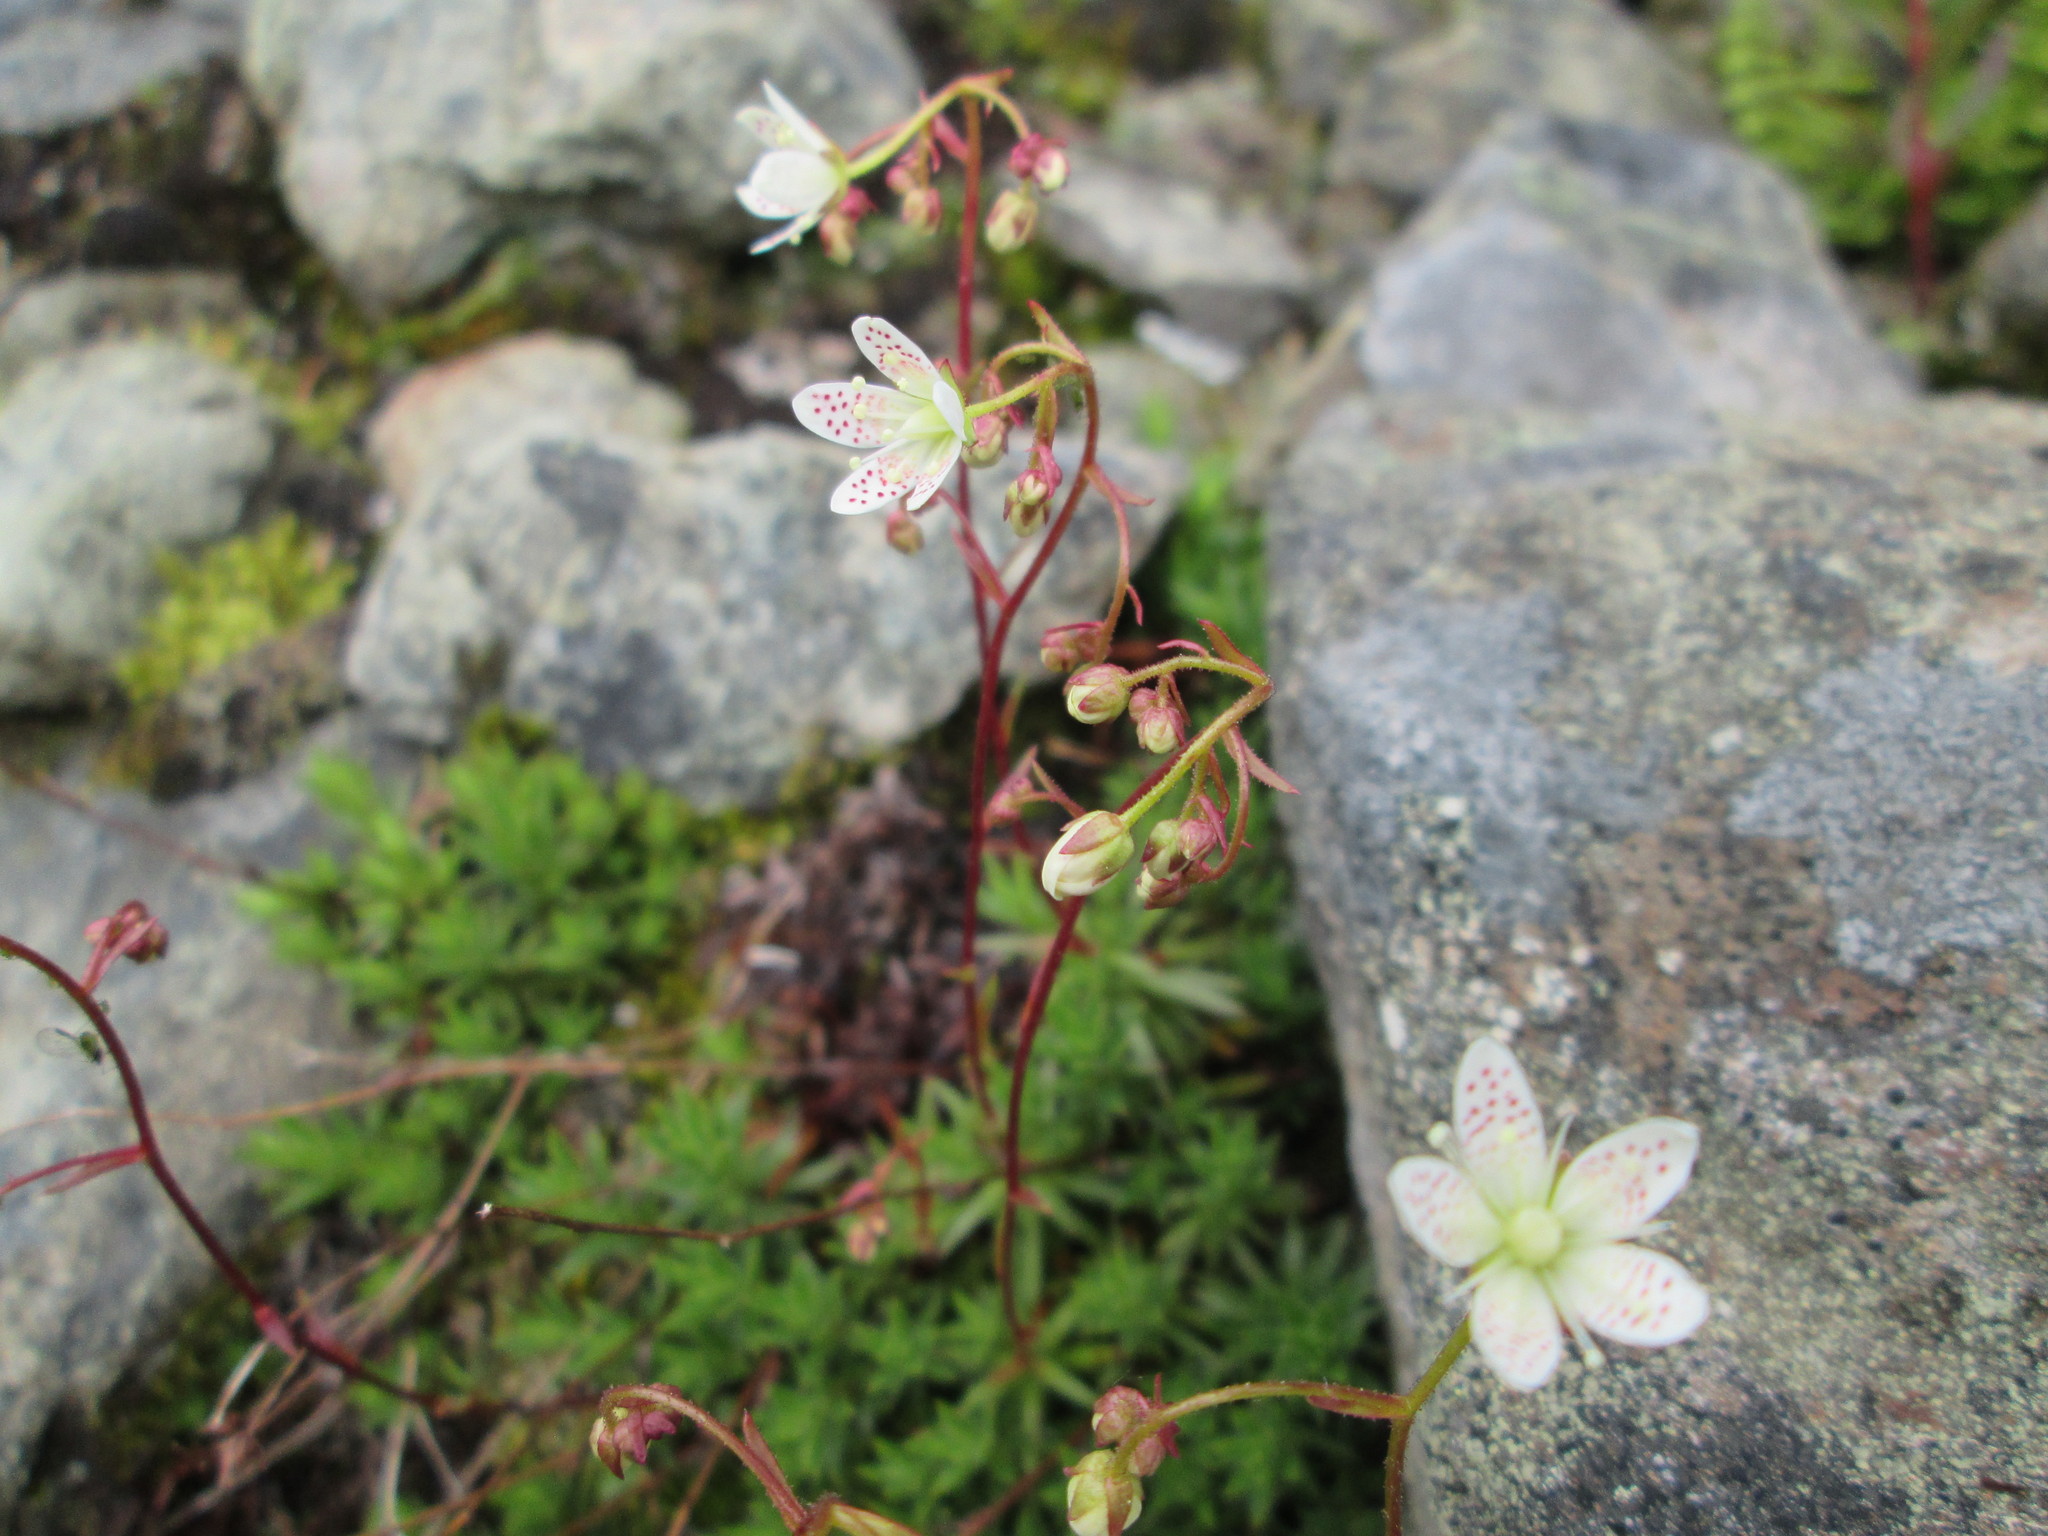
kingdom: Plantae
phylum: Tracheophyta
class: Magnoliopsida
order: Saxifragales
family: Saxifragaceae
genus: Saxifraga
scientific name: Saxifraga bronchialis
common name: Matted saxifrage
